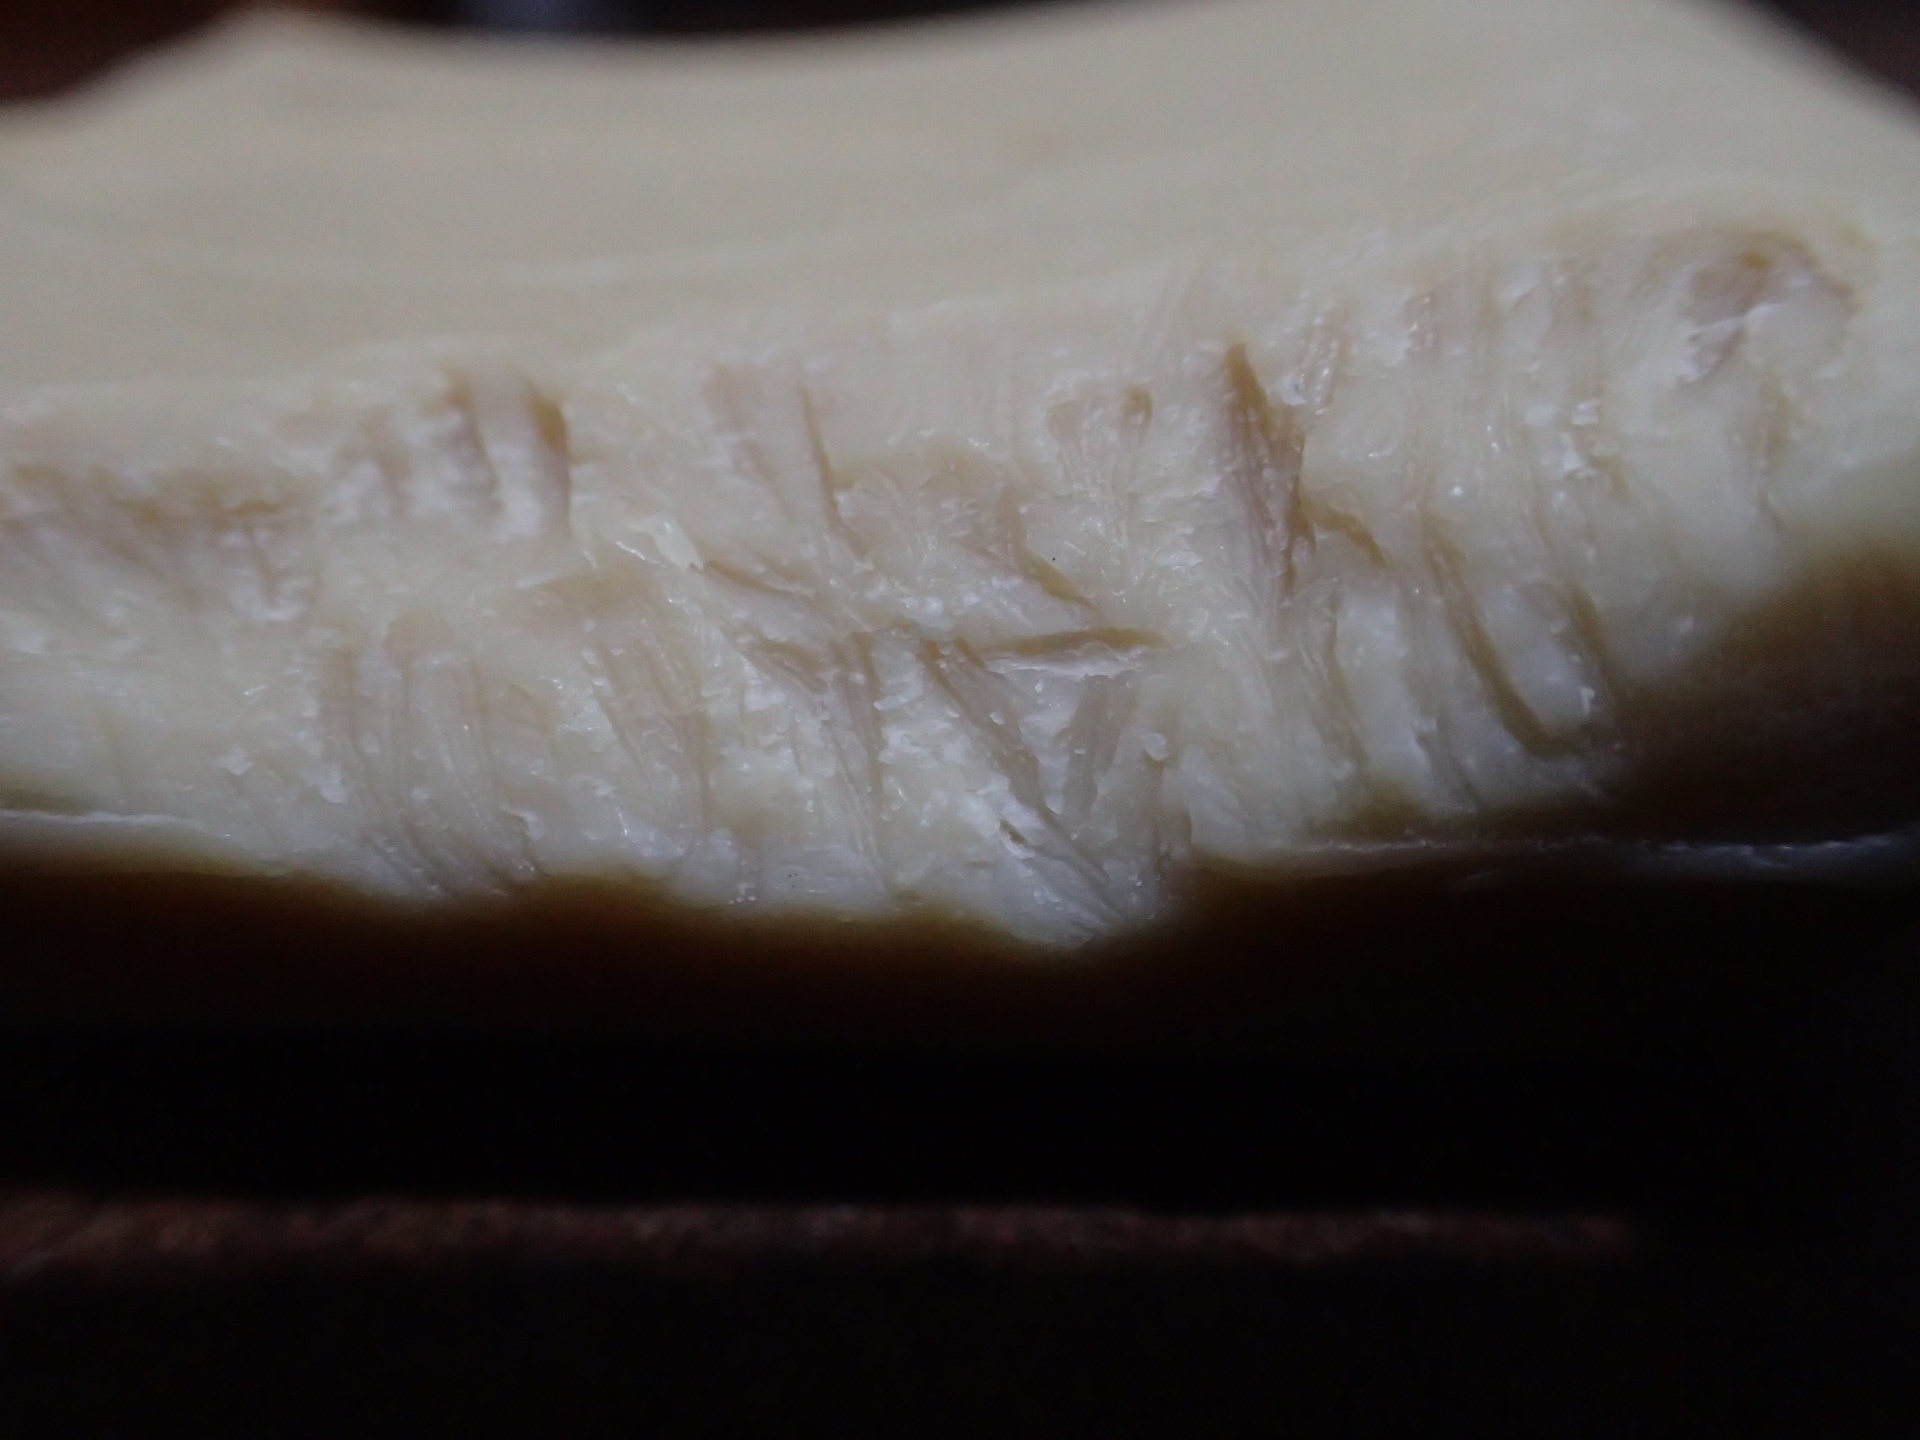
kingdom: Animalia
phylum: Chordata
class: Mammalia
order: Rodentia
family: Muridae
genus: Mus
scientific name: Mus musculus
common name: House mouse
